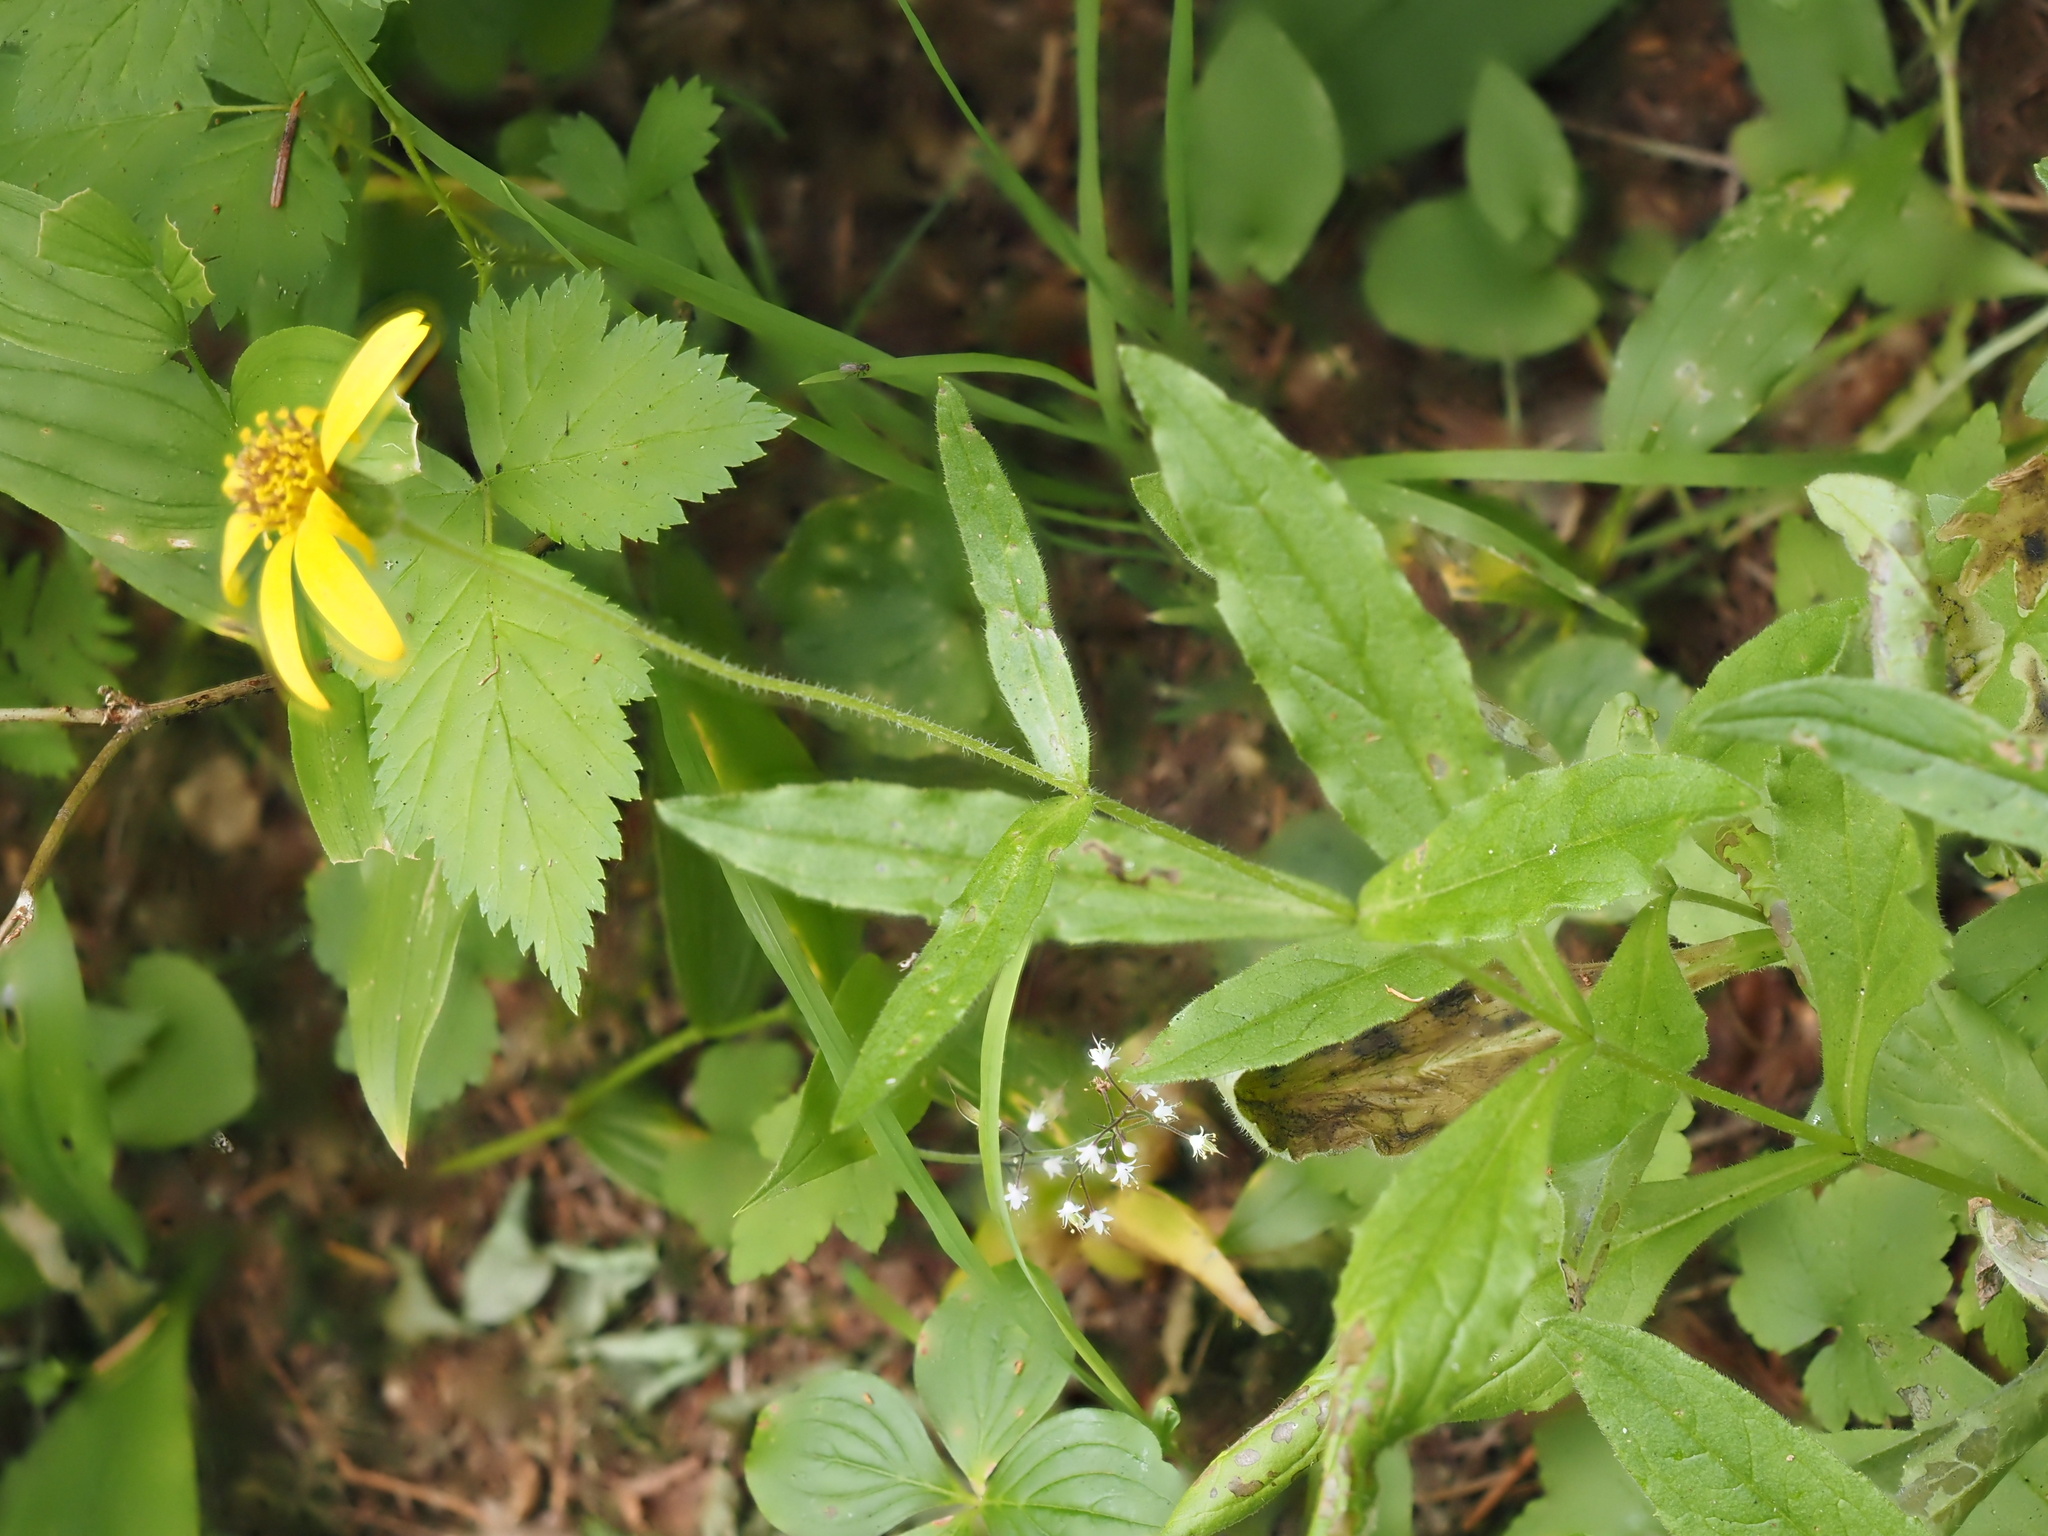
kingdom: Plantae
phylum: Tracheophyta
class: Magnoliopsida
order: Asterales
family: Asteraceae
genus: Arnica
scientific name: Arnica lanceolata
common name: Lance-leaved arnica
